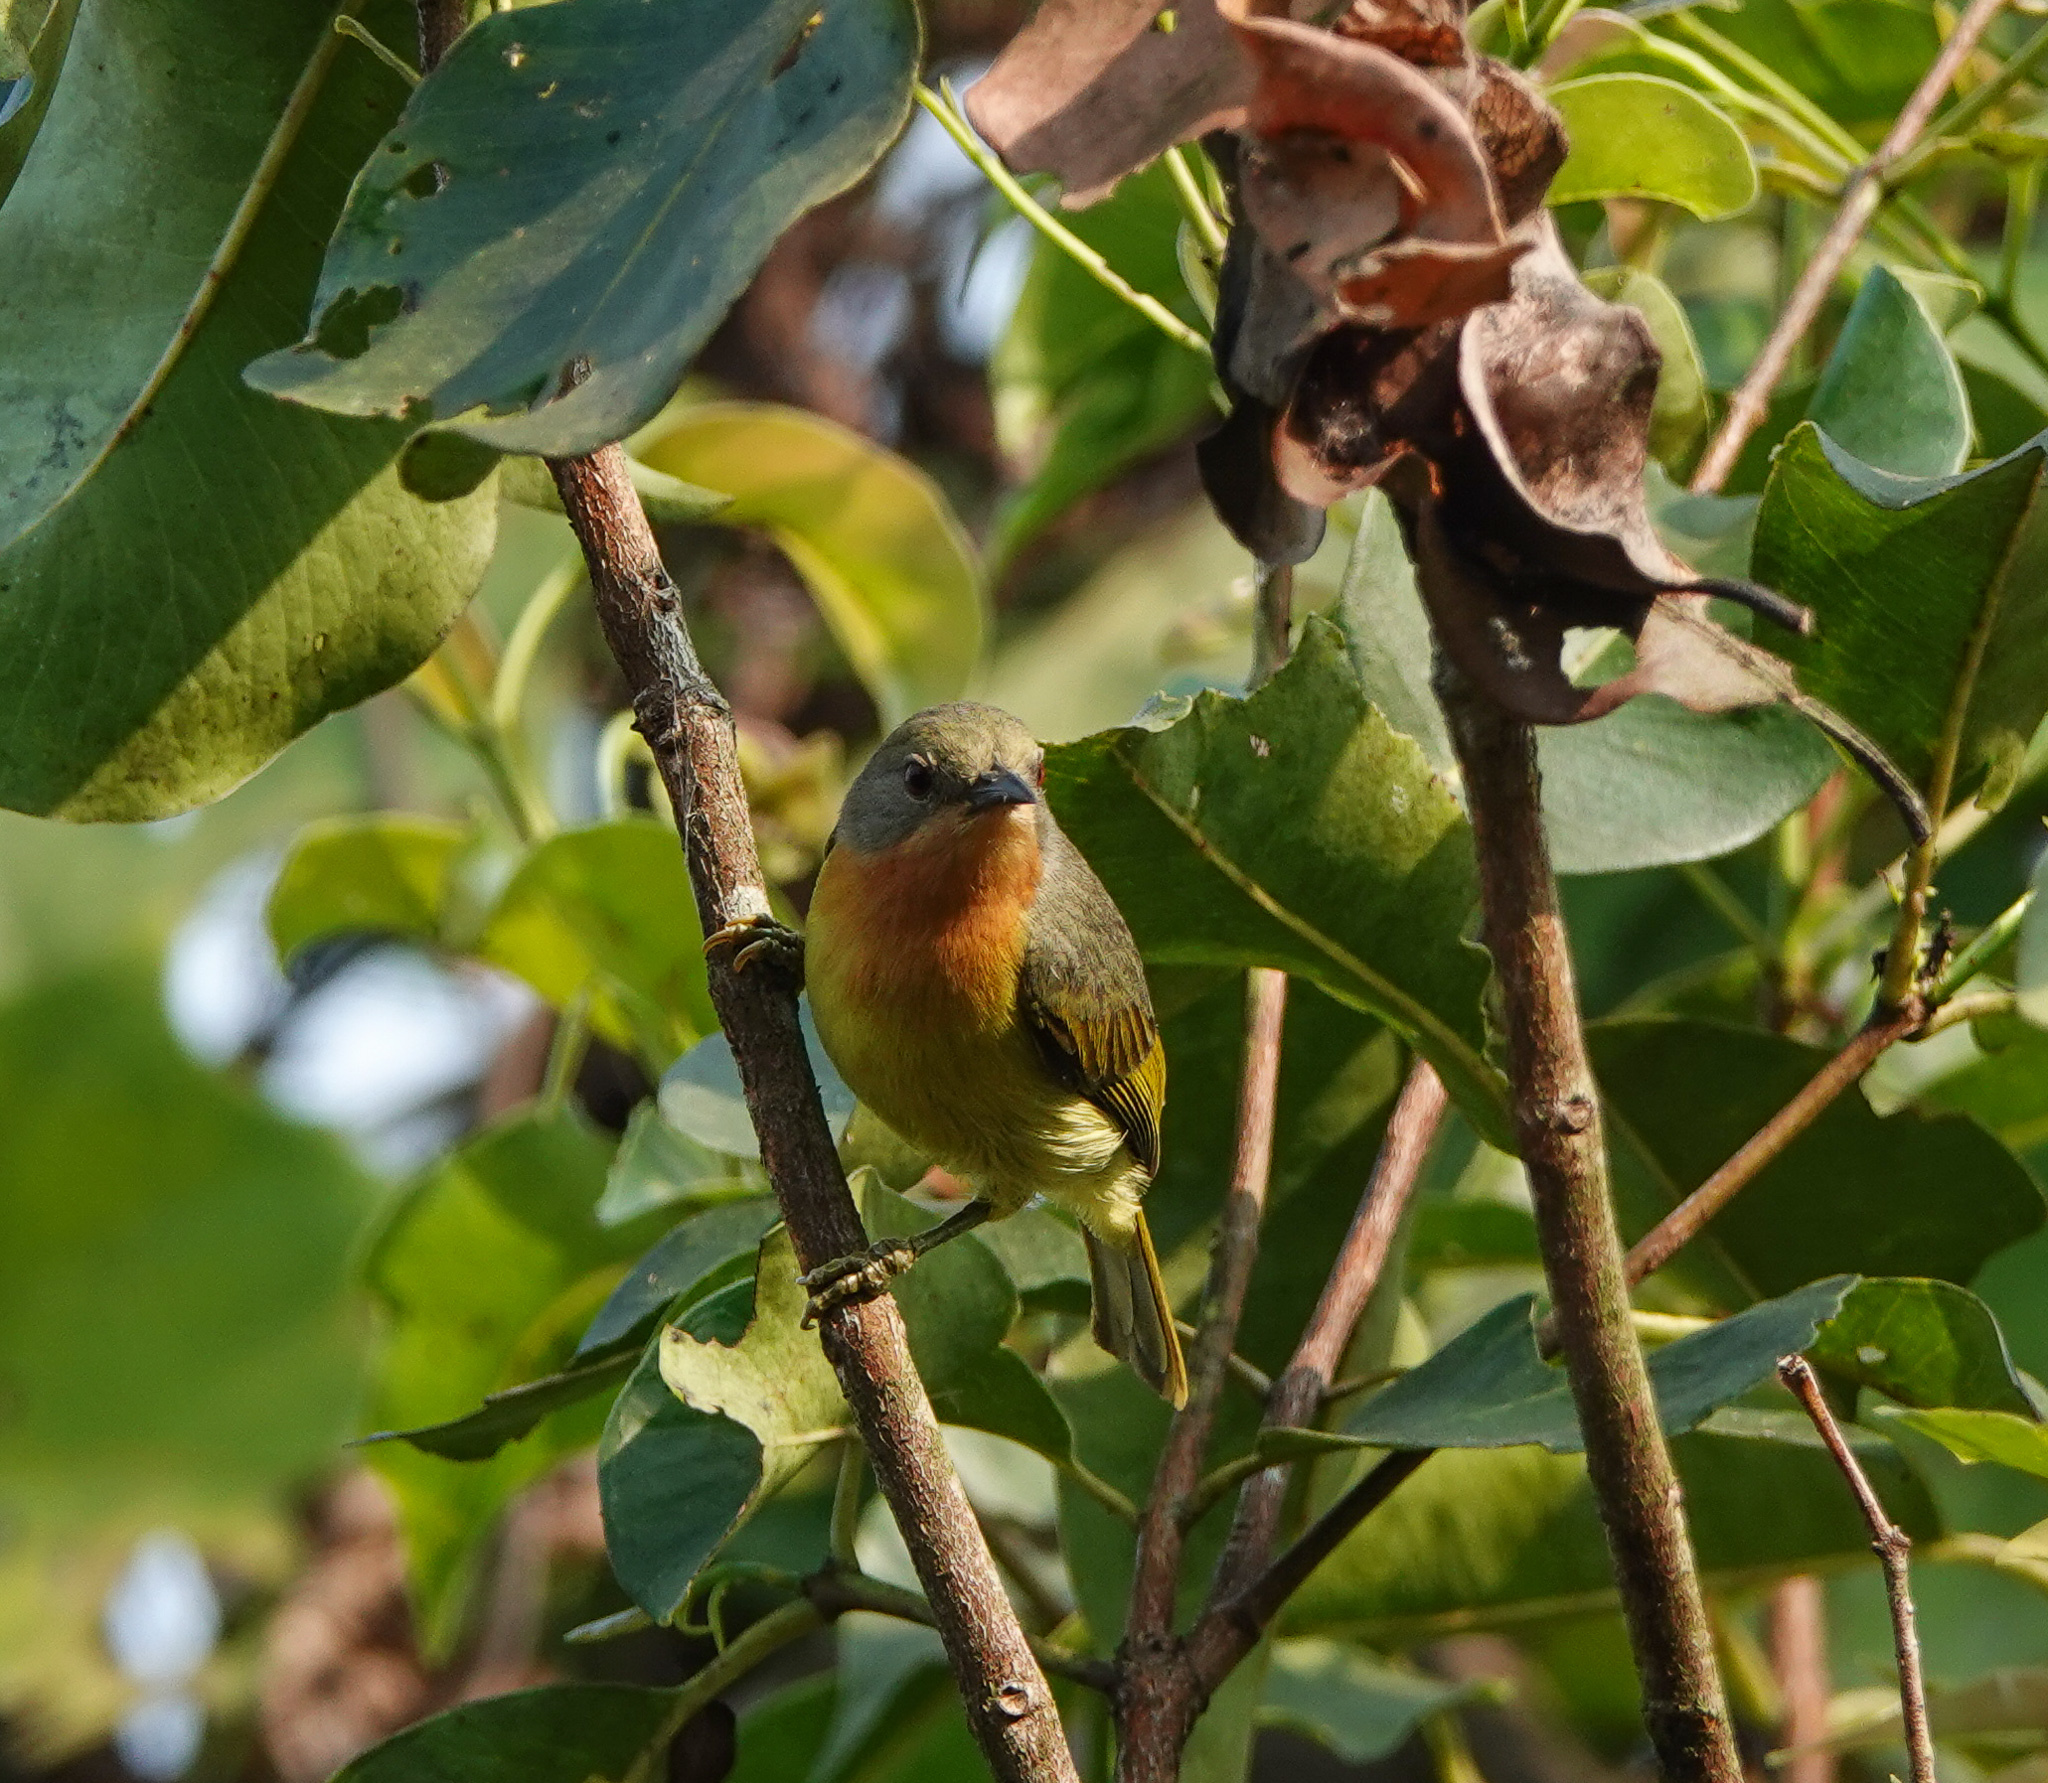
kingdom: Animalia
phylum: Chordata
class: Aves
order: Passeriformes
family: Nectariniidae
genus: Chalcoparia
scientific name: Chalcoparia singalensis
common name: Ruby-cheeked sunbird
